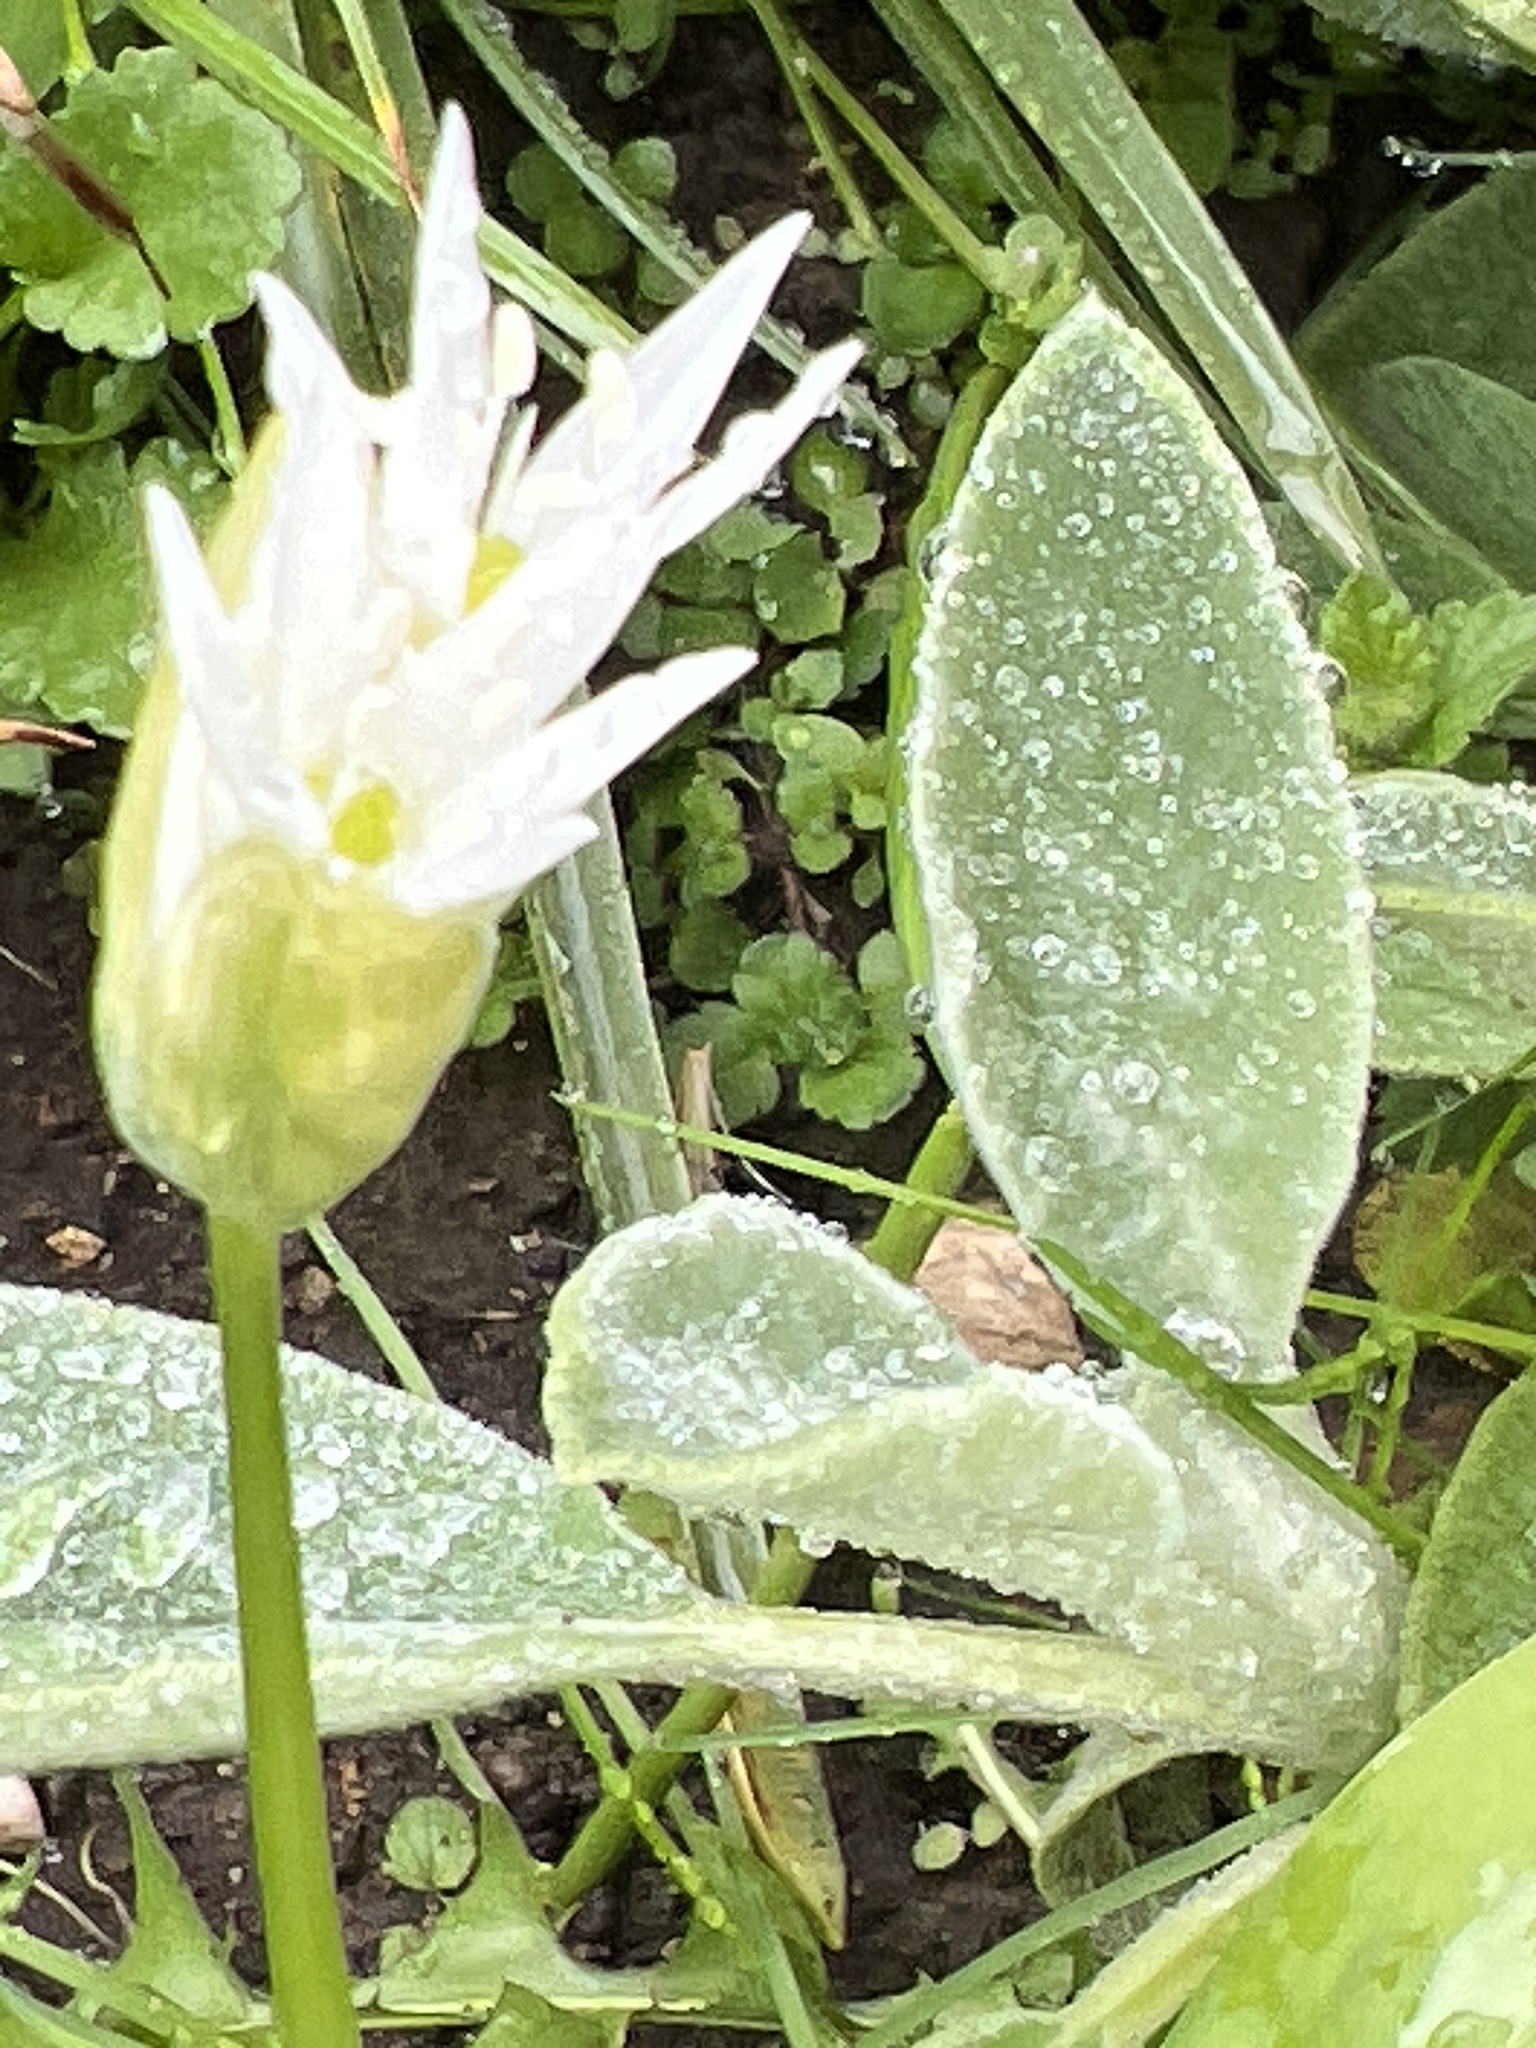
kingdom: Plantae
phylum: Tracheophyta
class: Liliopsida
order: Asparagales
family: Amaryllidaceae
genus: Allium
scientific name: Allium ursinum
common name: Ramsons
